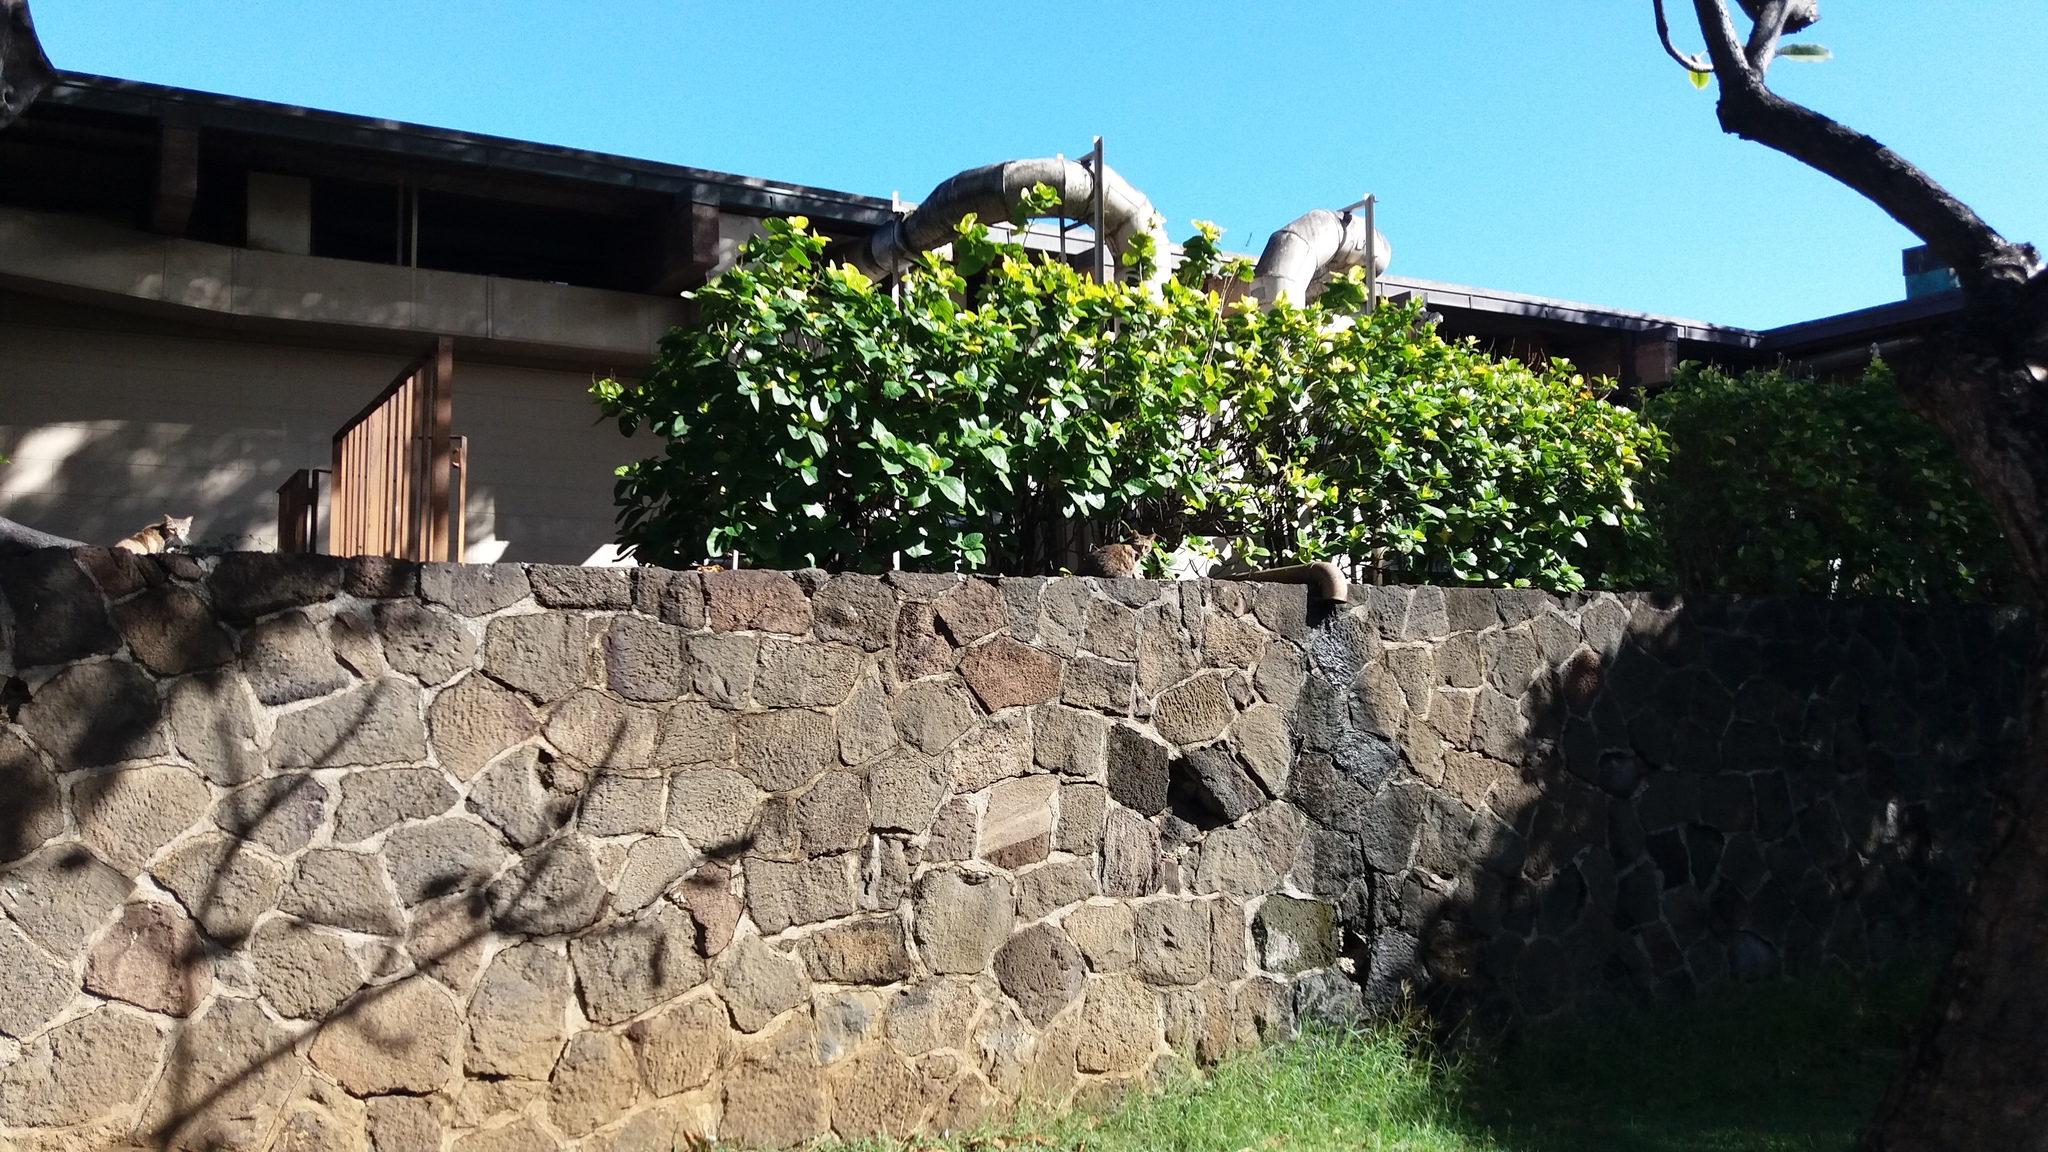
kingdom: Animalia
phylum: Chordata
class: Mammalia
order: Carnivora
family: Felidae
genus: Felis
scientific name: Felis catus
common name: Domestic cat
